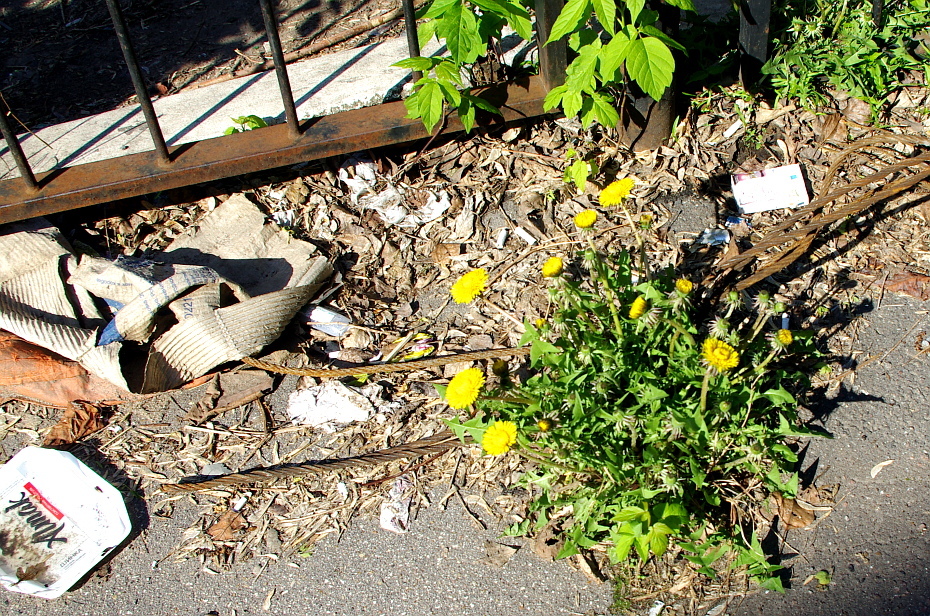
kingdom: Plantae
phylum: Tracheophyta
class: Magnoliopsida
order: Asterales
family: Asteraceae
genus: Taraxacum
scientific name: Taraxacum officinale
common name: Common dandelion
